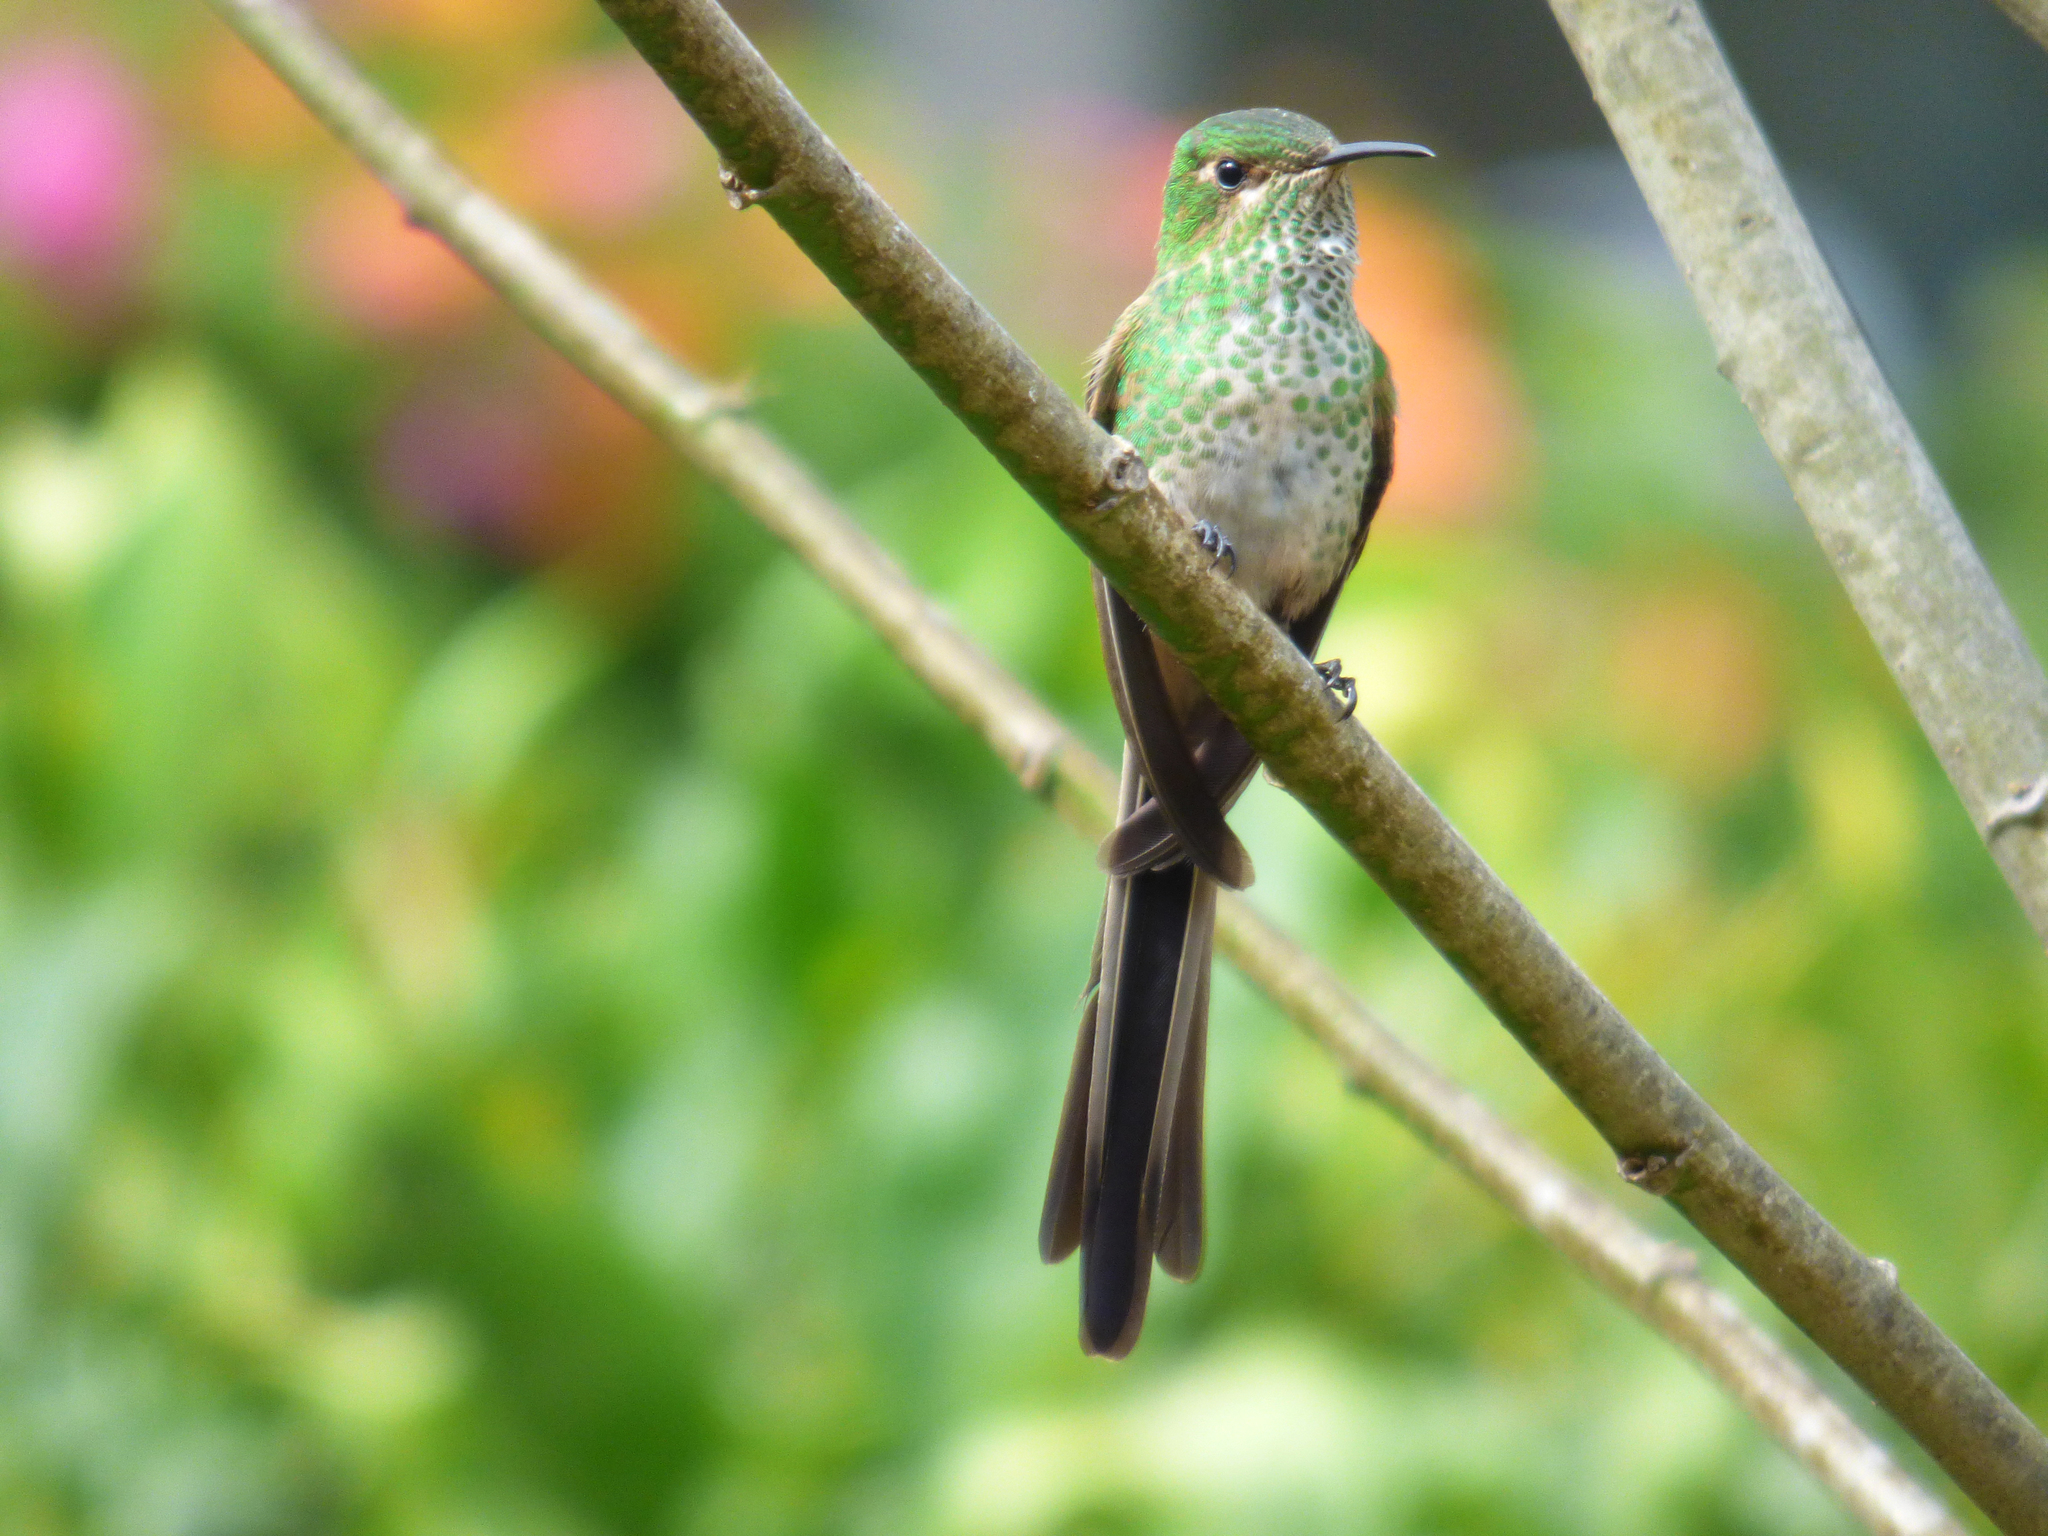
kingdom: Animalia
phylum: Chordata
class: Aves
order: Apodiformes
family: Trochilidae
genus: Lesbia
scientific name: Lesbia victoriae
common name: Black-tailed trainbearer
